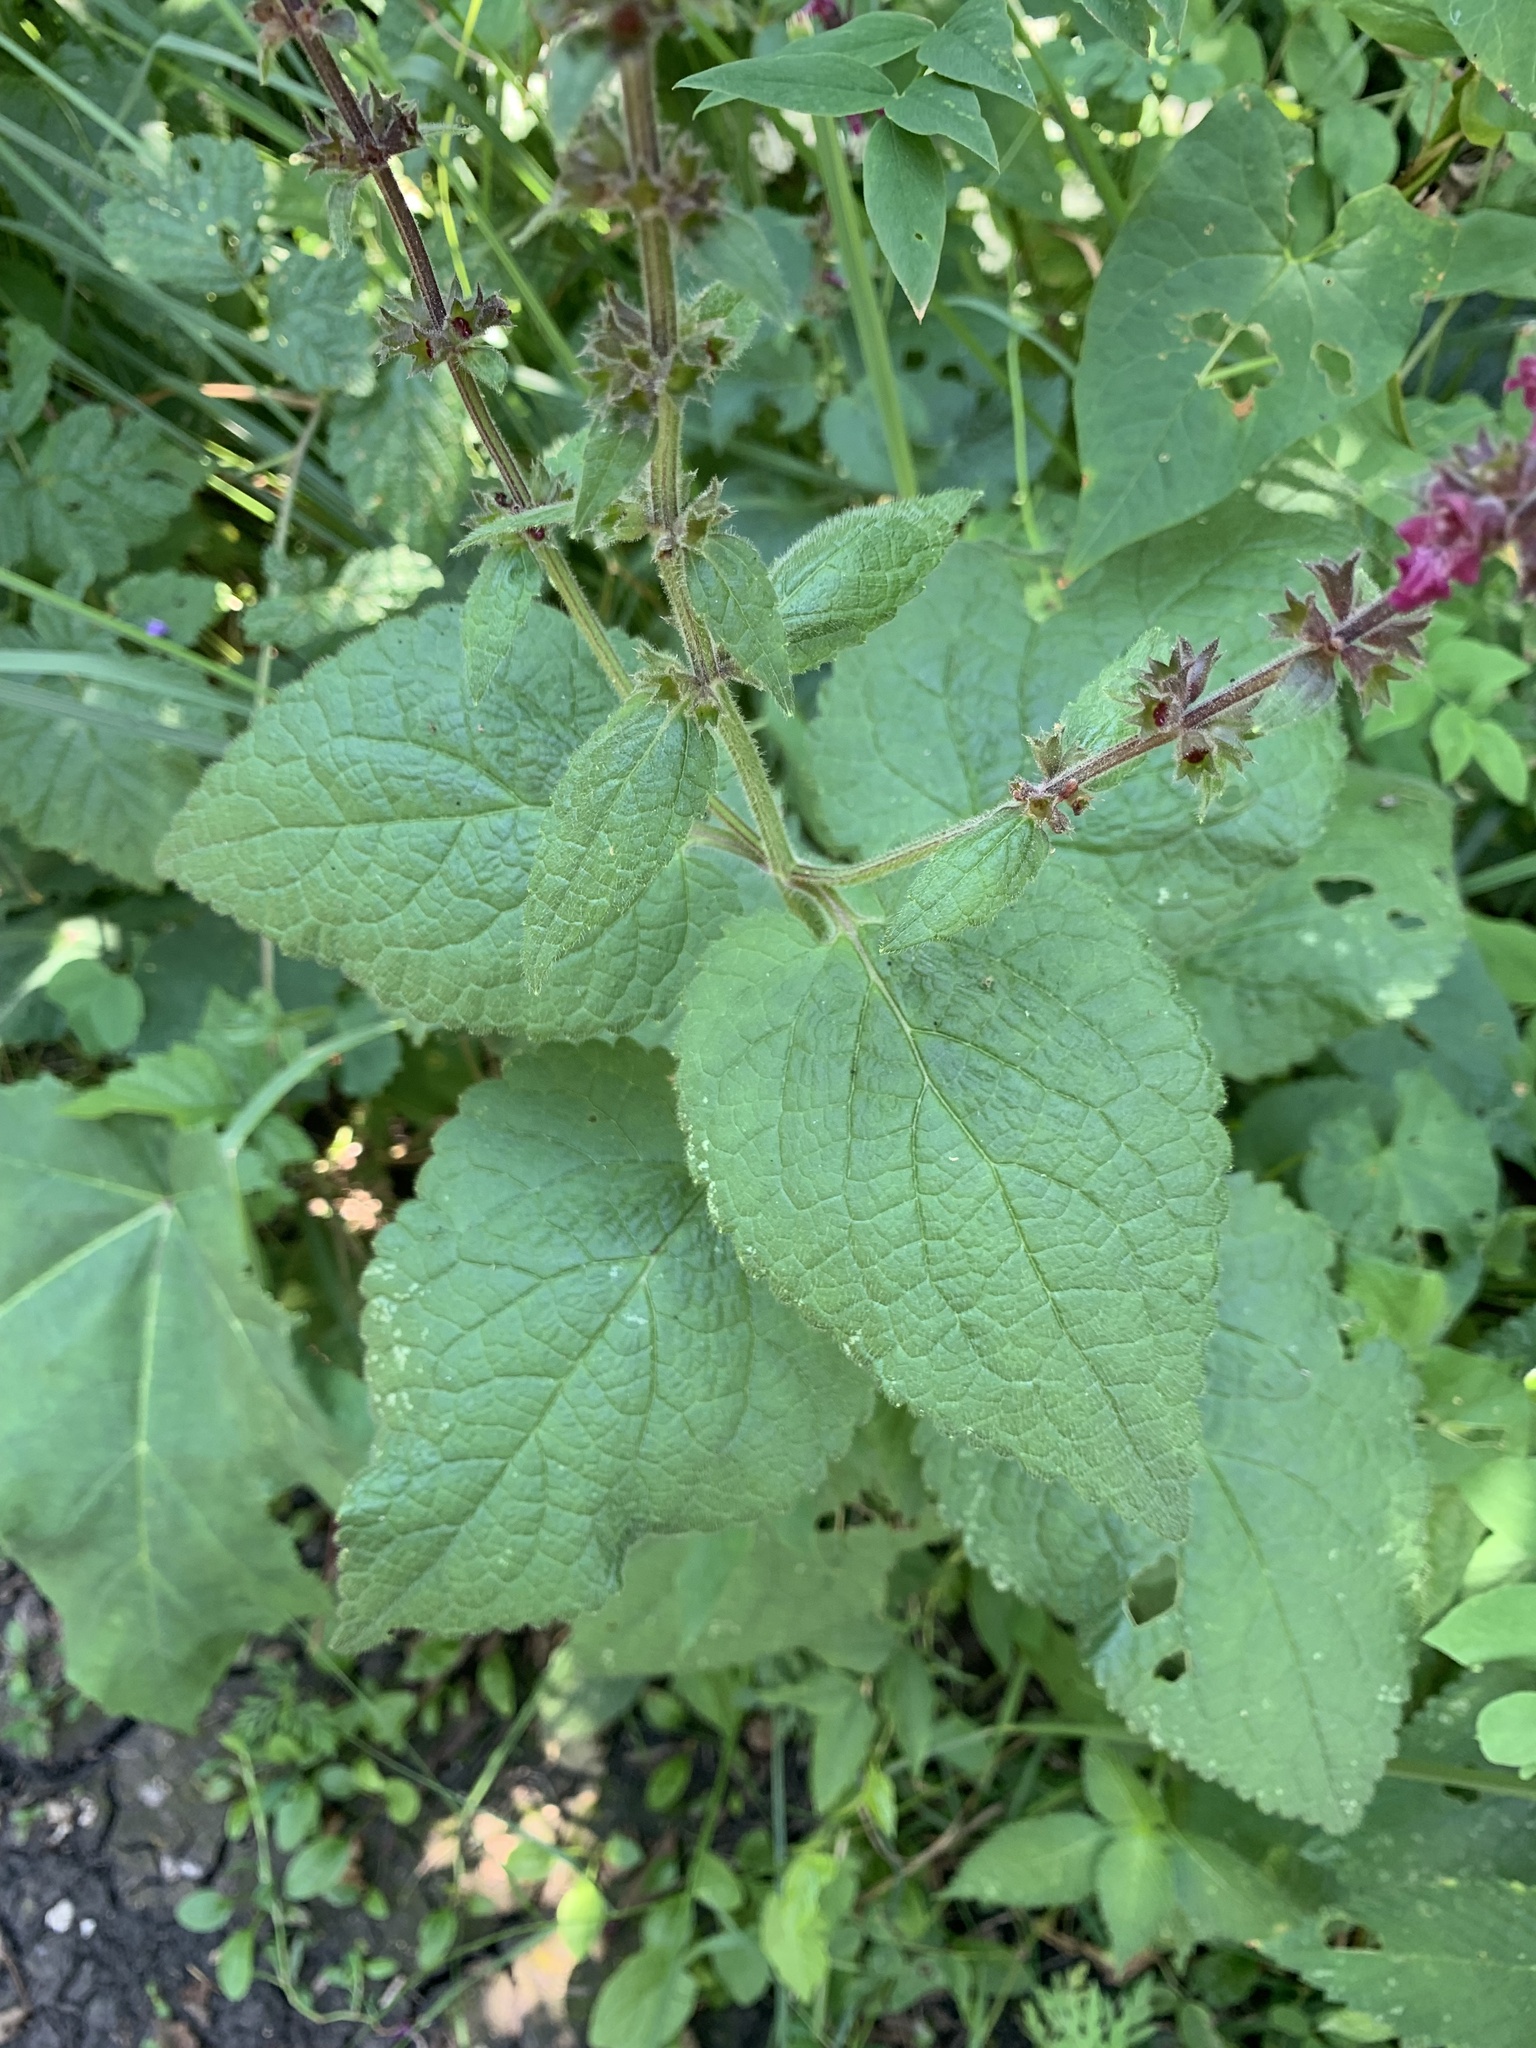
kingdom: Plantae
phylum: Tracheophyta
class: Magnoliopsida
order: Lamiales
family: Lamiaceae
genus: Stachys
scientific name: Stachys sylvatica
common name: Hedge woundwort
